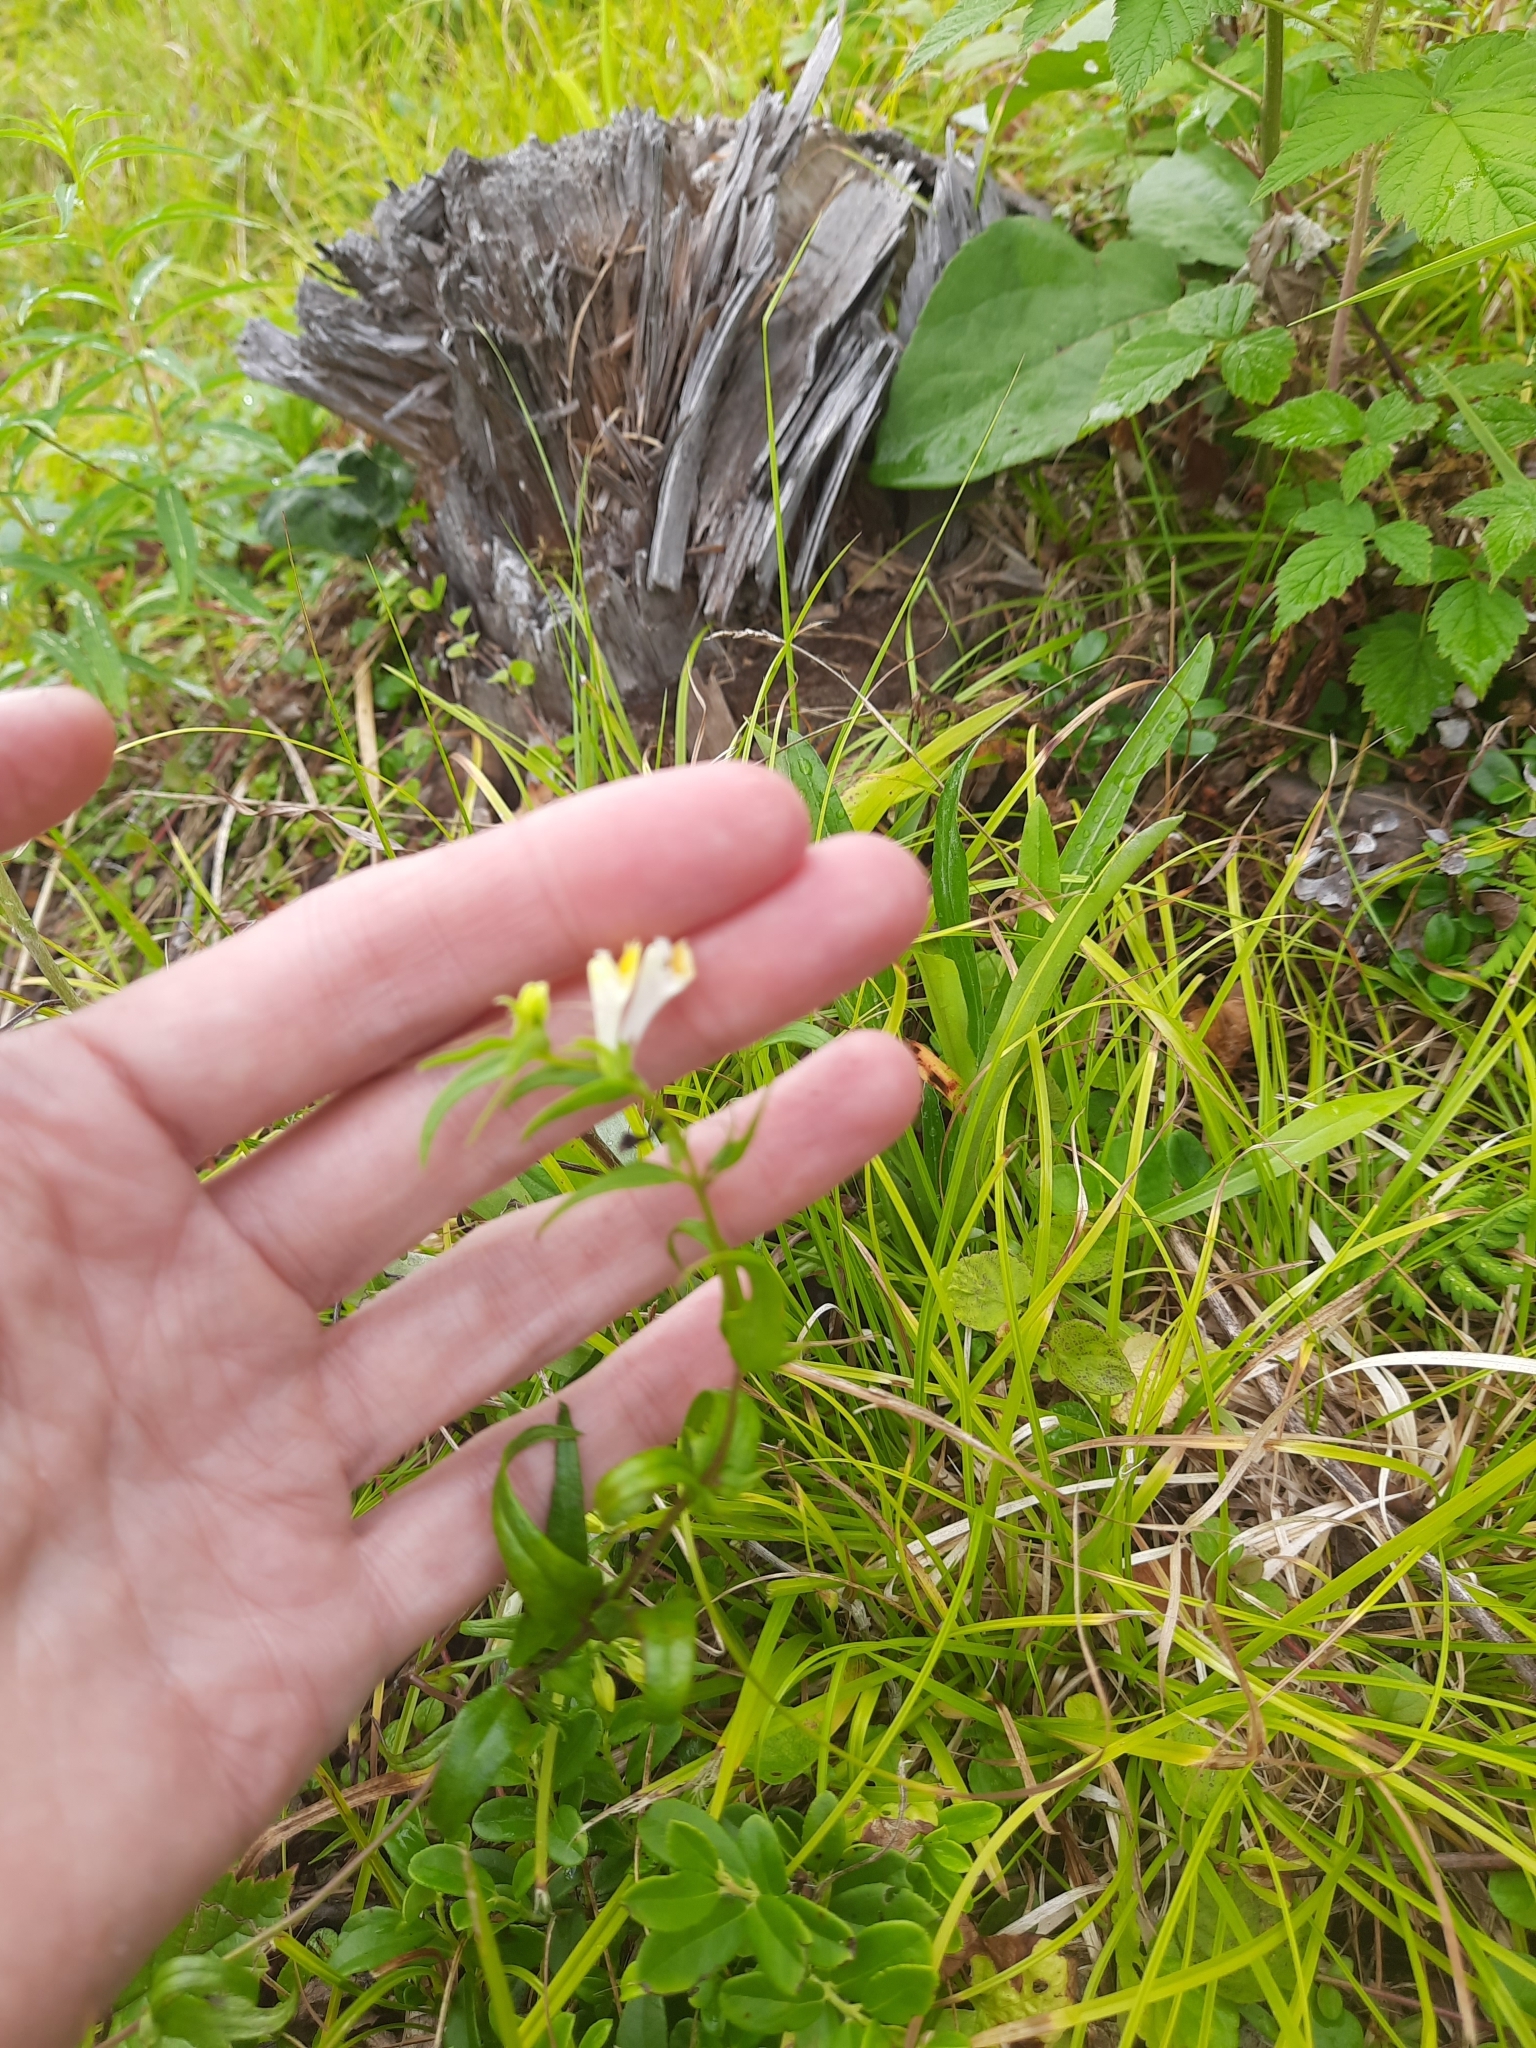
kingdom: Plantae
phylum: Tracheophyta
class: Magnoliopsida
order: Lamiales
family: Orobanchaceae
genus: Melampyrum
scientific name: Melampyrum pratense
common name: Common cow-wheat
